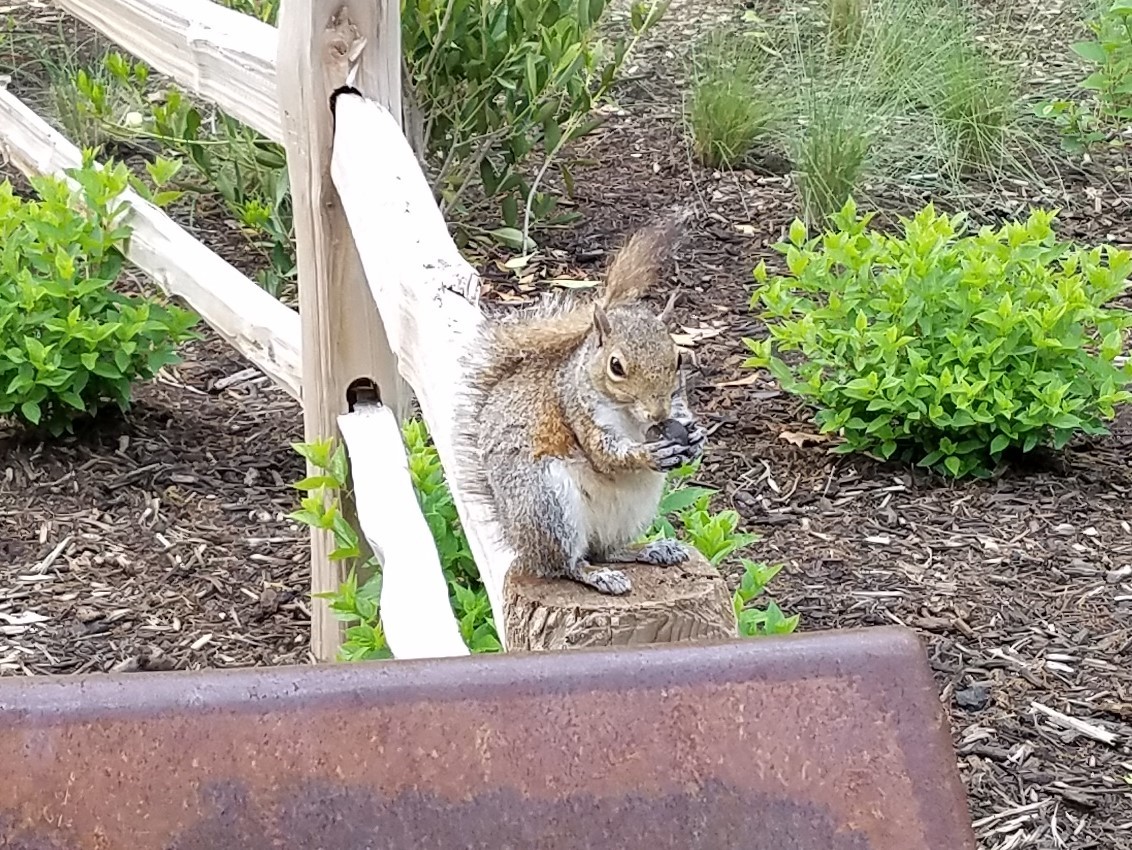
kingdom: Animalia
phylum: Chordata
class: Mammalia
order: Rodentia
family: Sciuridae
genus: Sciurus
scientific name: Sciurus carolinensis
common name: Eastern gray squirrel
